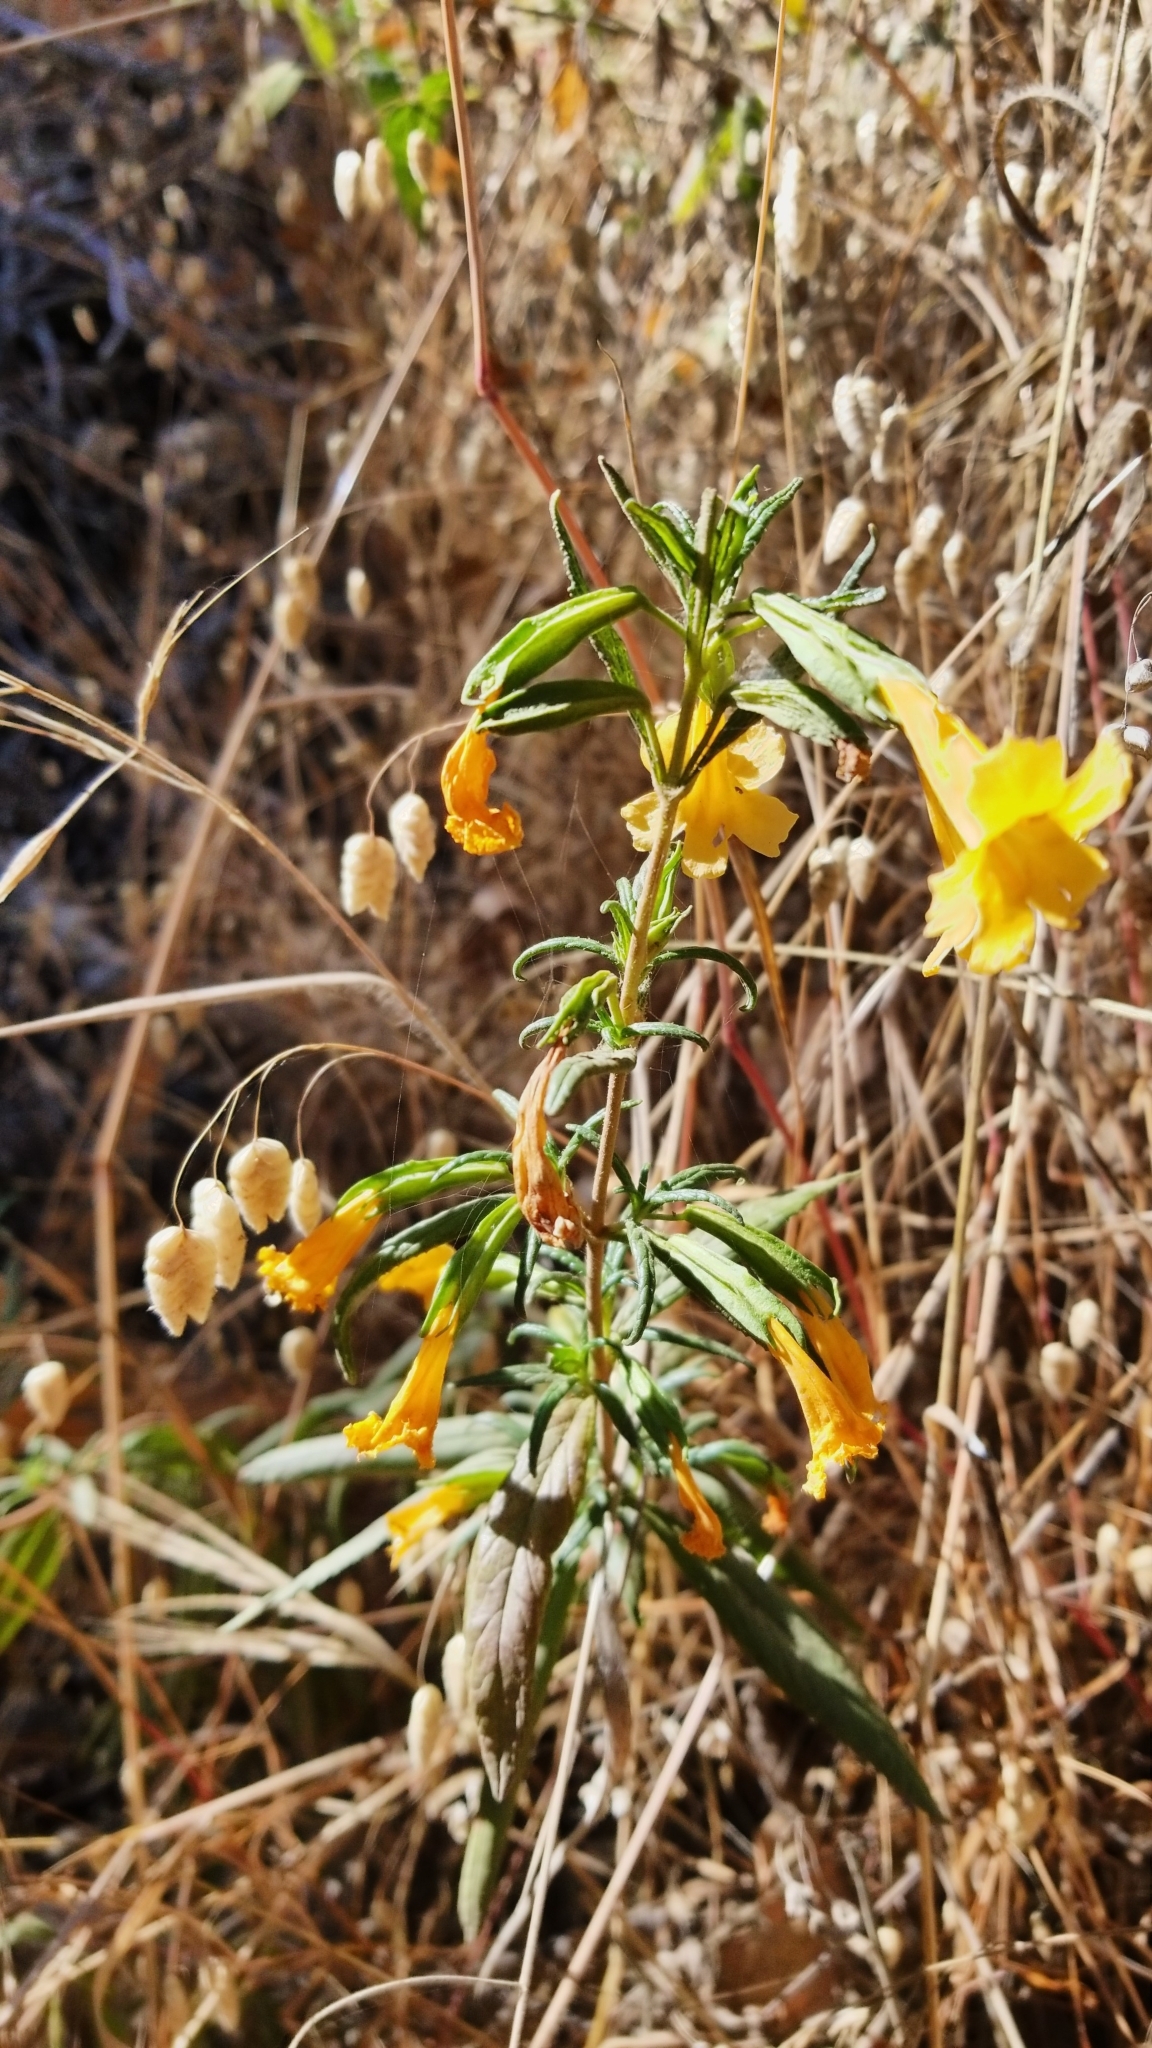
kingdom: Plantae
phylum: Tracheophyta
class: Magnoliopsida
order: Lamiales
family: Phrymaceae
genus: Diplacus
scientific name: Diplacus aurantiacus
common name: Bush monkey-flower
